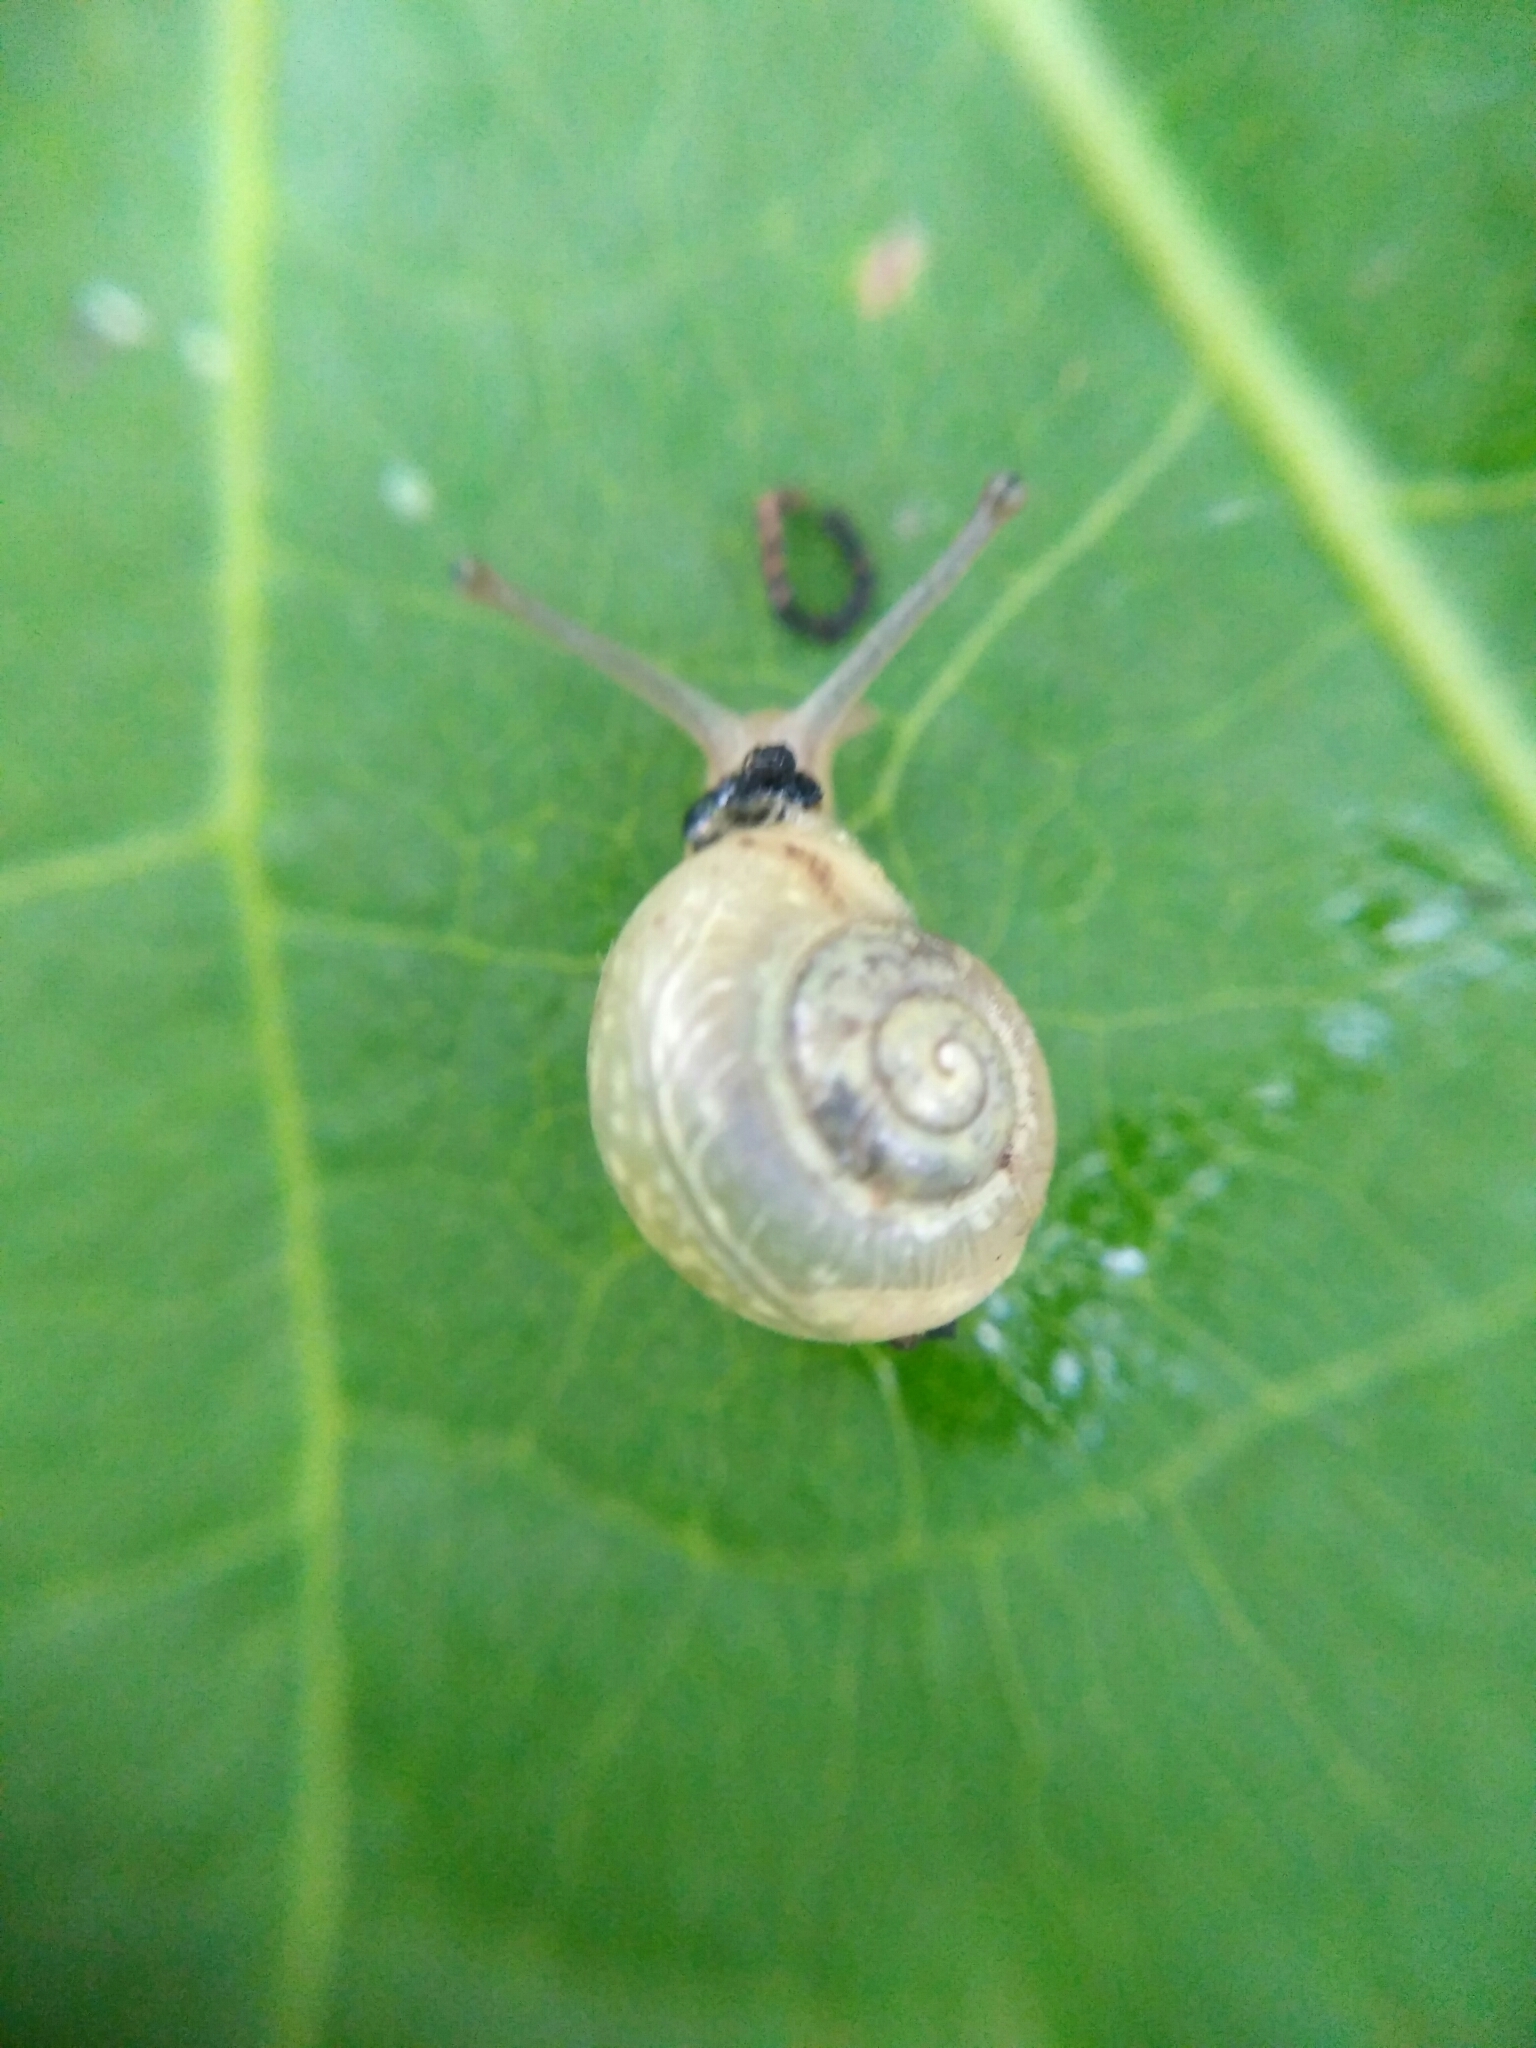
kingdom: Animalia
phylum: Mollusca
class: Gastropoda
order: Stylommatophora
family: Camaenidae
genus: Fruticicola
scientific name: Fruticicola fruticum
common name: Bush snail
